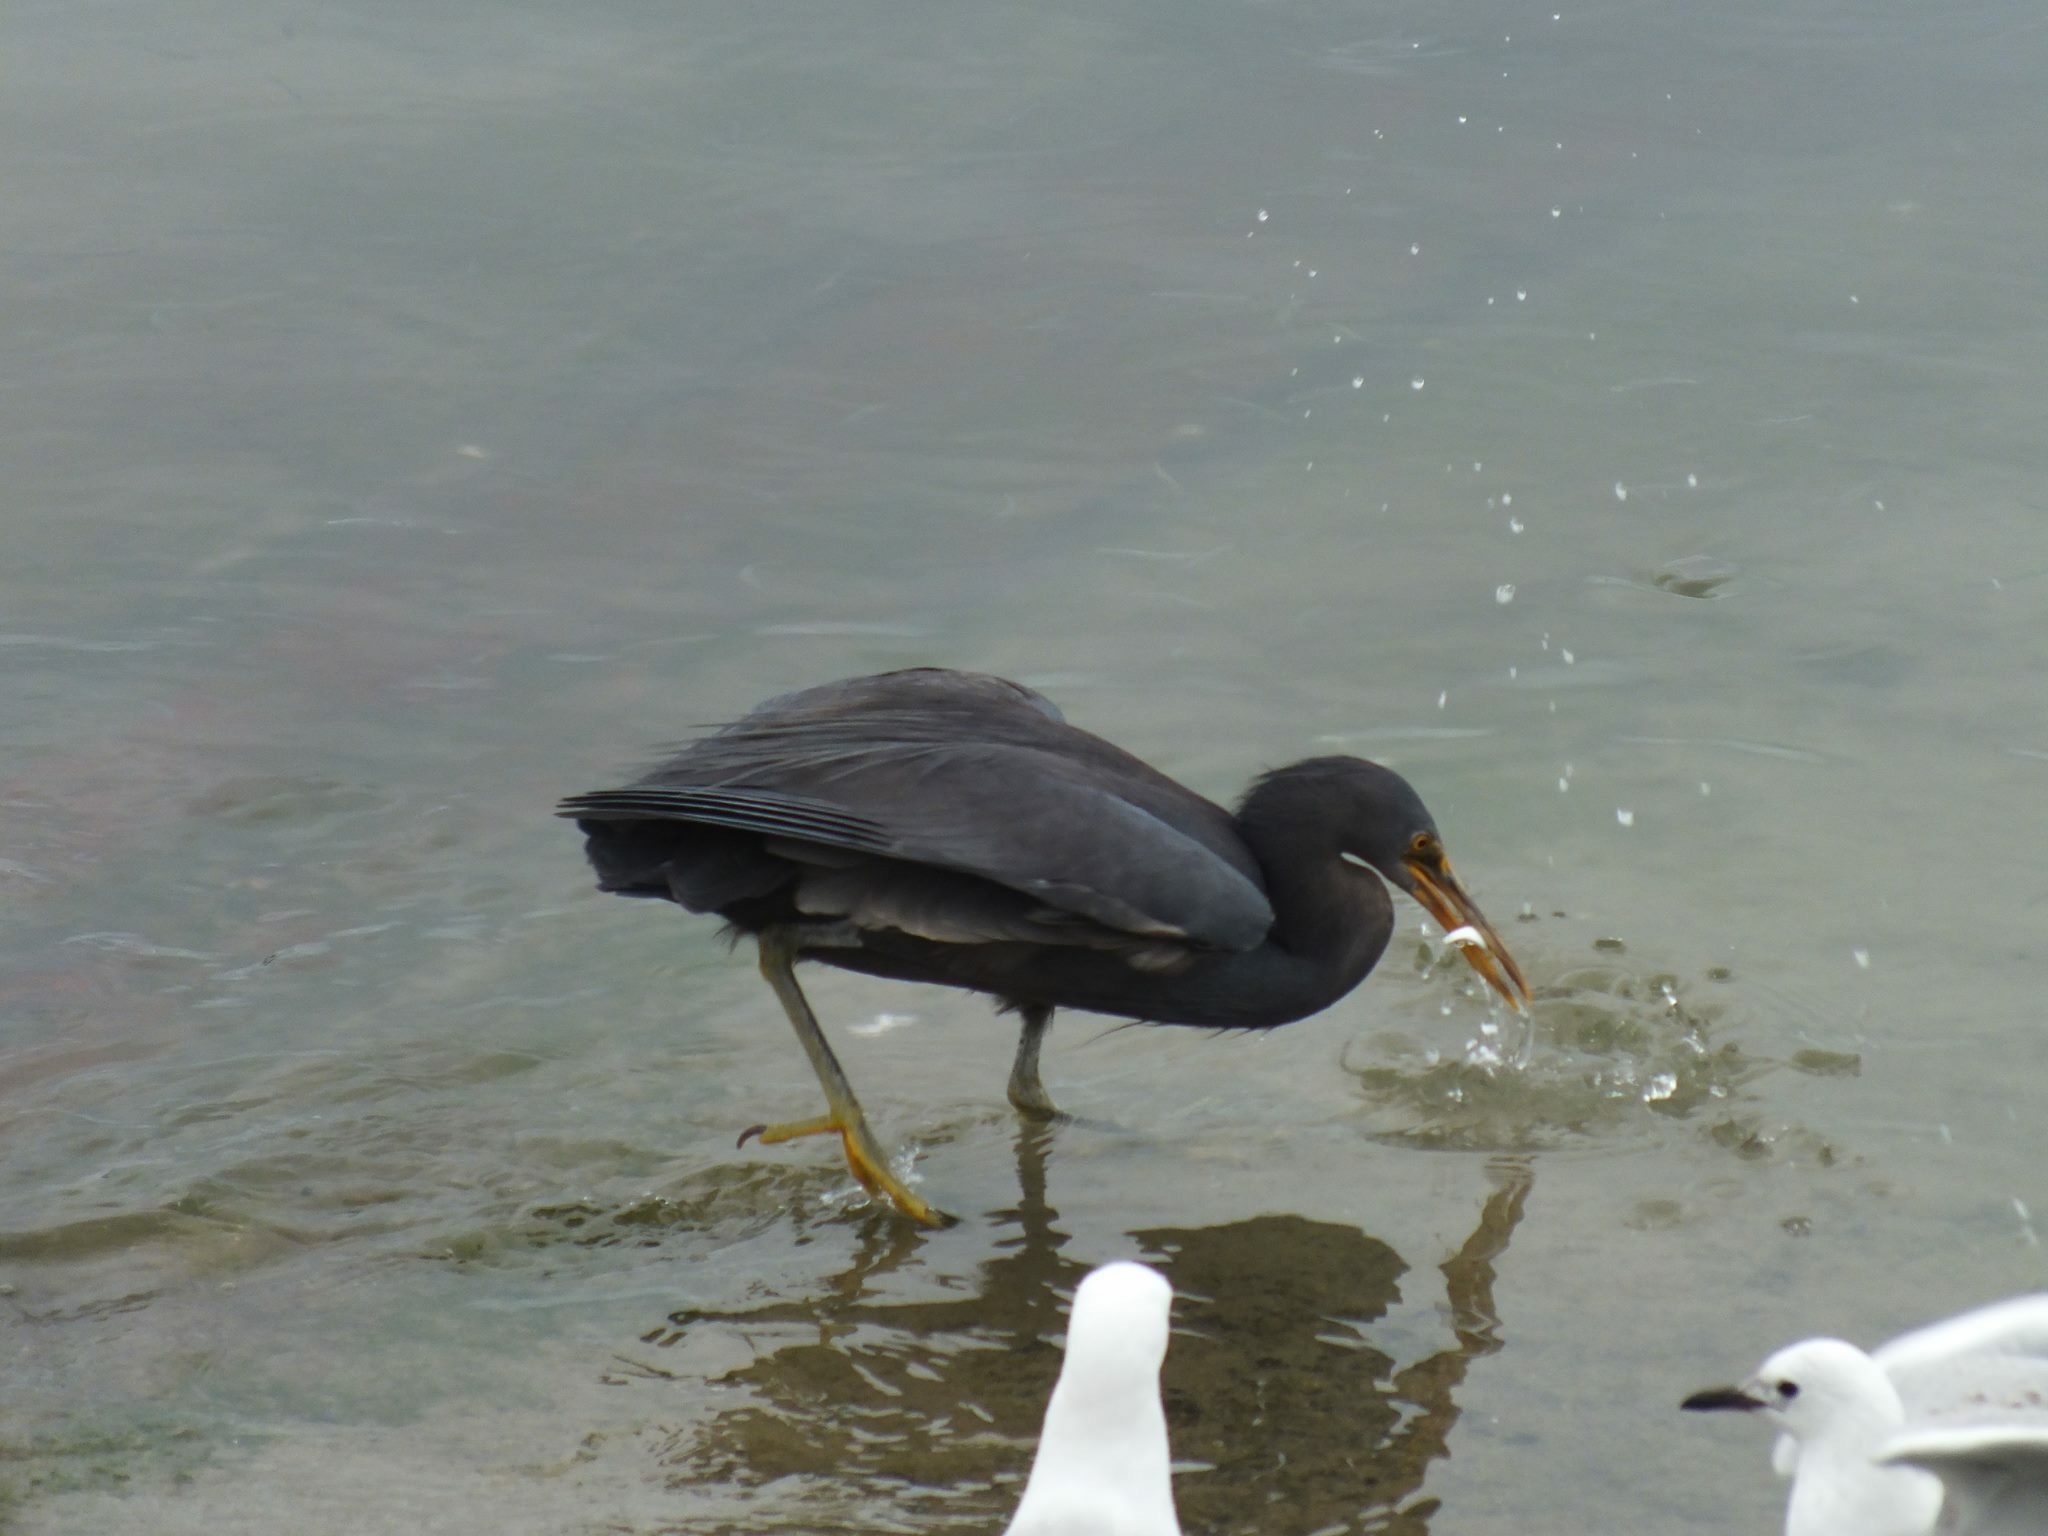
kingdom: Animalia
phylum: Chordata
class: Aves
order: Pelecaniformes
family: Ardeidae
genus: Egretta
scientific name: Egretta sacra
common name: Pacific reef heron
